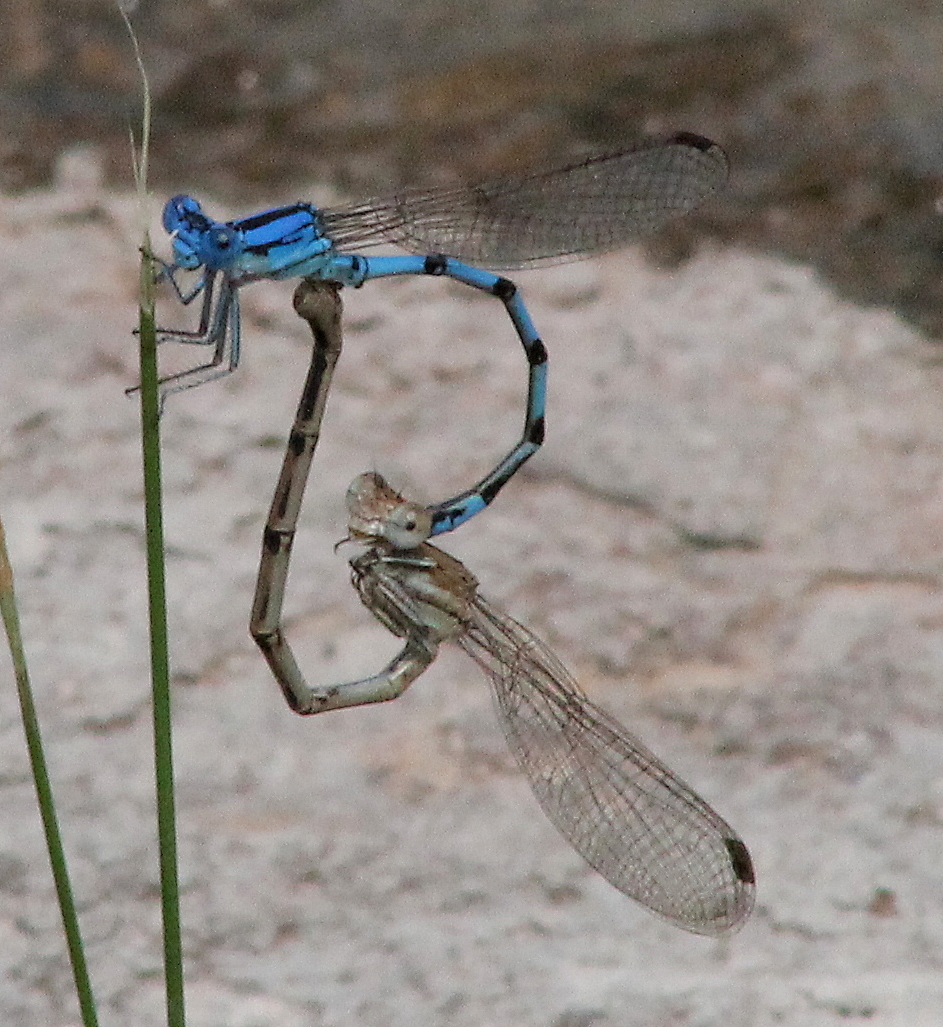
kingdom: Animalia
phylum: Arthropoda
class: Insecta
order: Odonata
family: Coenagrionidae
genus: Argia
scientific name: Argia nahuana
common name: Aztec dancer
